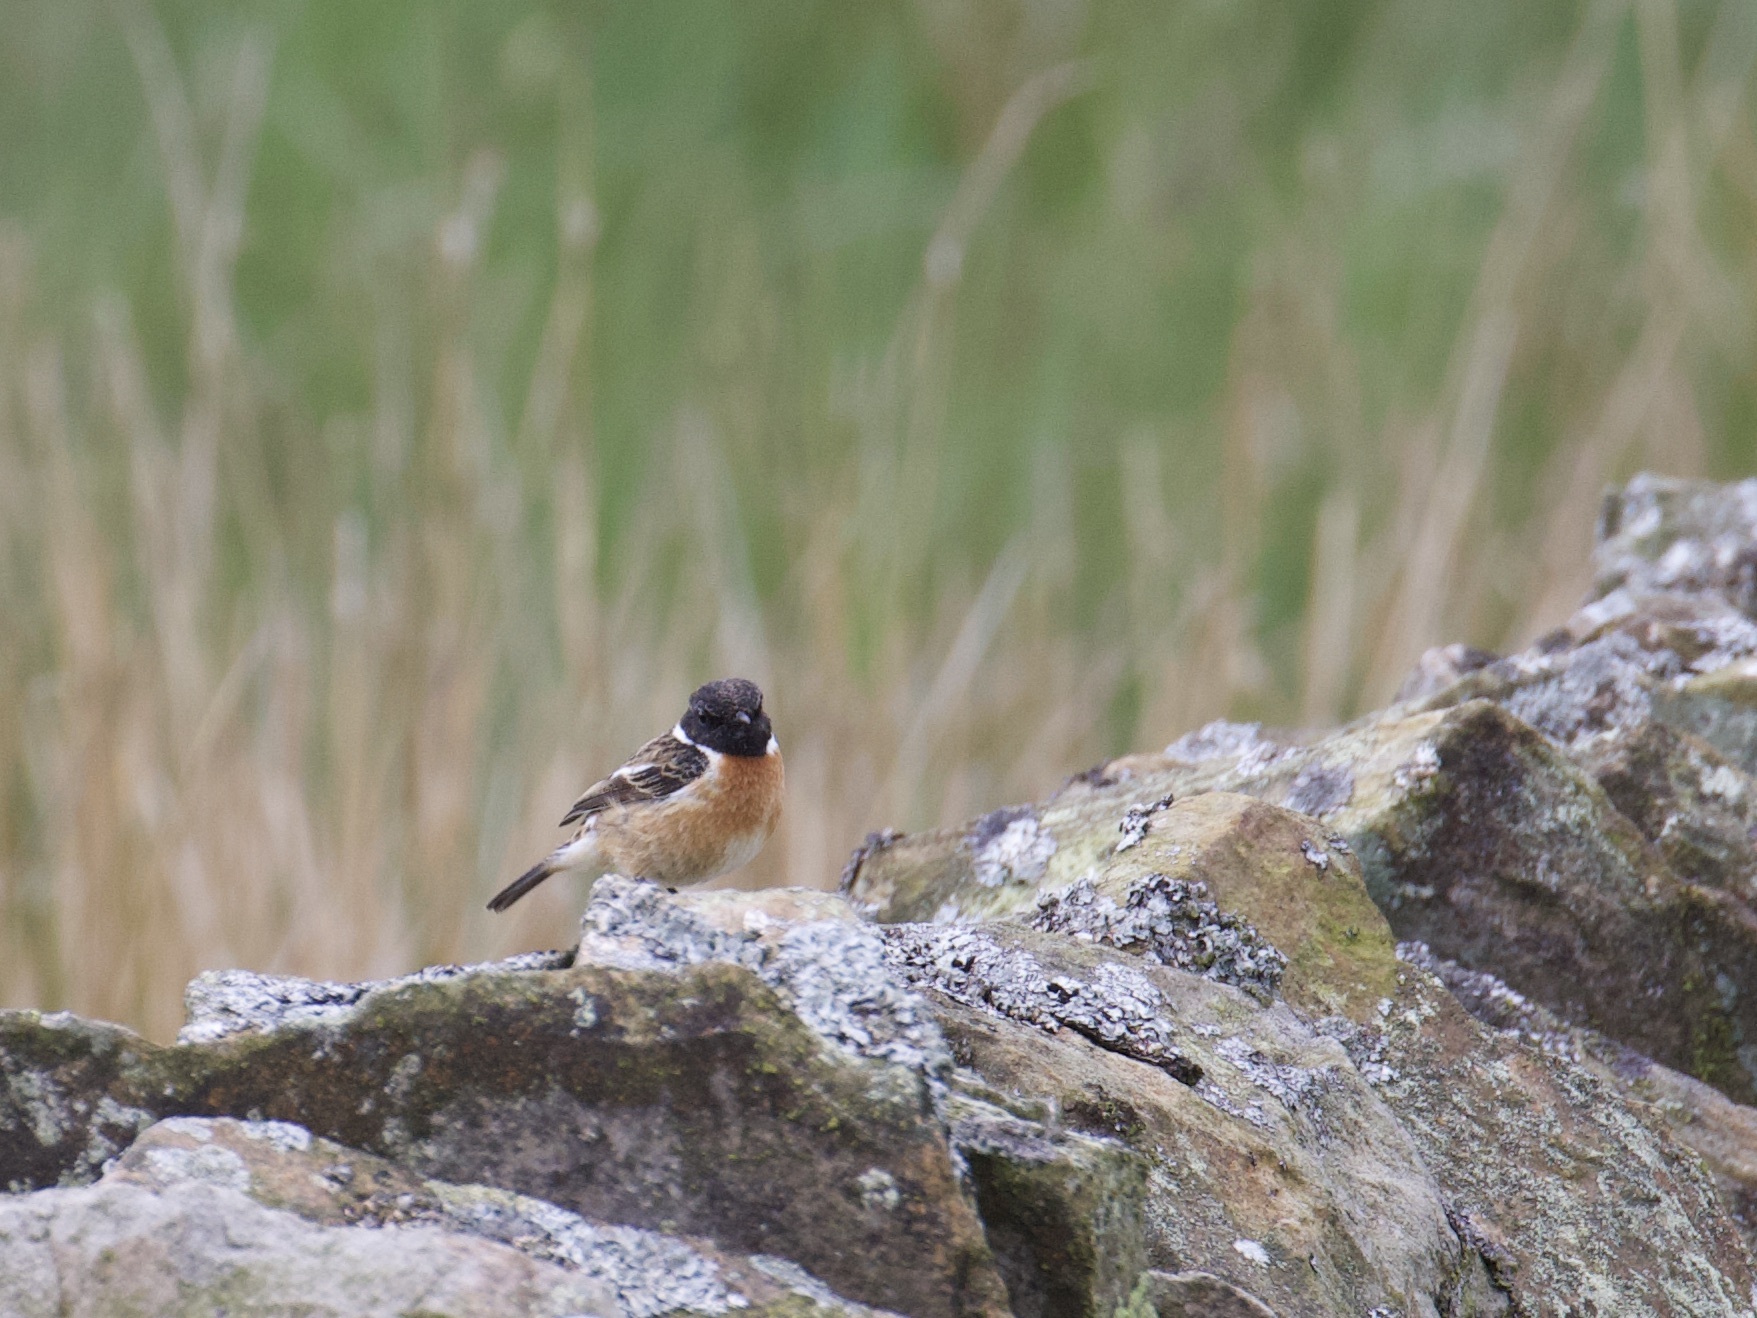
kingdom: Animalia
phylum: Chordata
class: Aves
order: Passeriformes
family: Muscicapidae
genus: Saxicola
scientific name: Saxicola rubicola
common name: European stonechat
